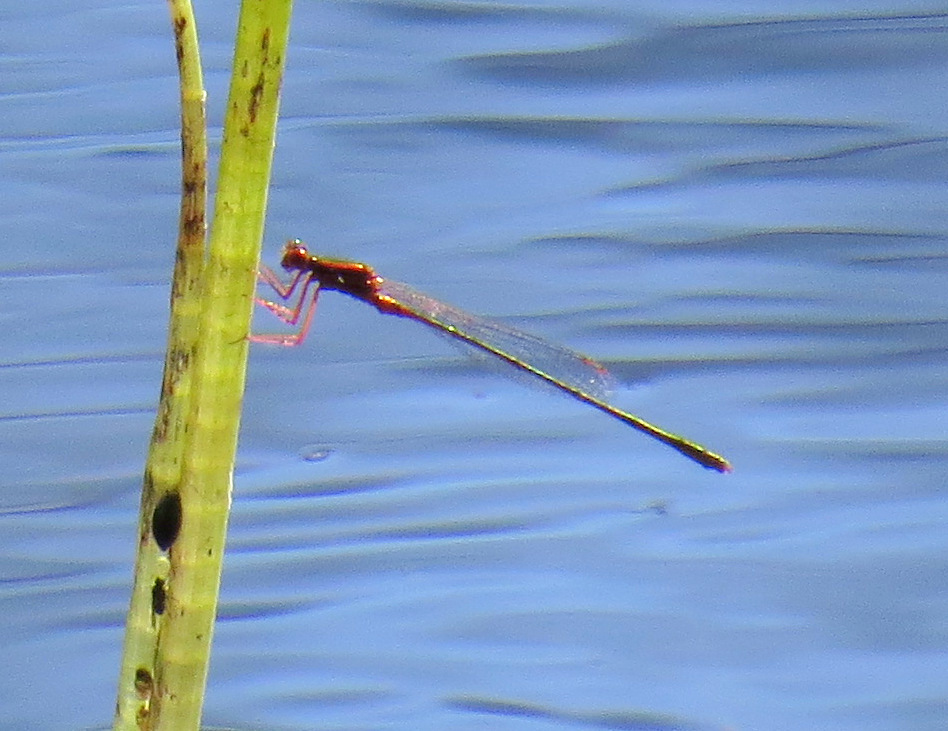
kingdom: Animalia
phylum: Arthropoda
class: Insecta
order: Odonata
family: Coenagrionidae
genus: Enallagma
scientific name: Enallagma pictum
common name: Scarlet bluet
